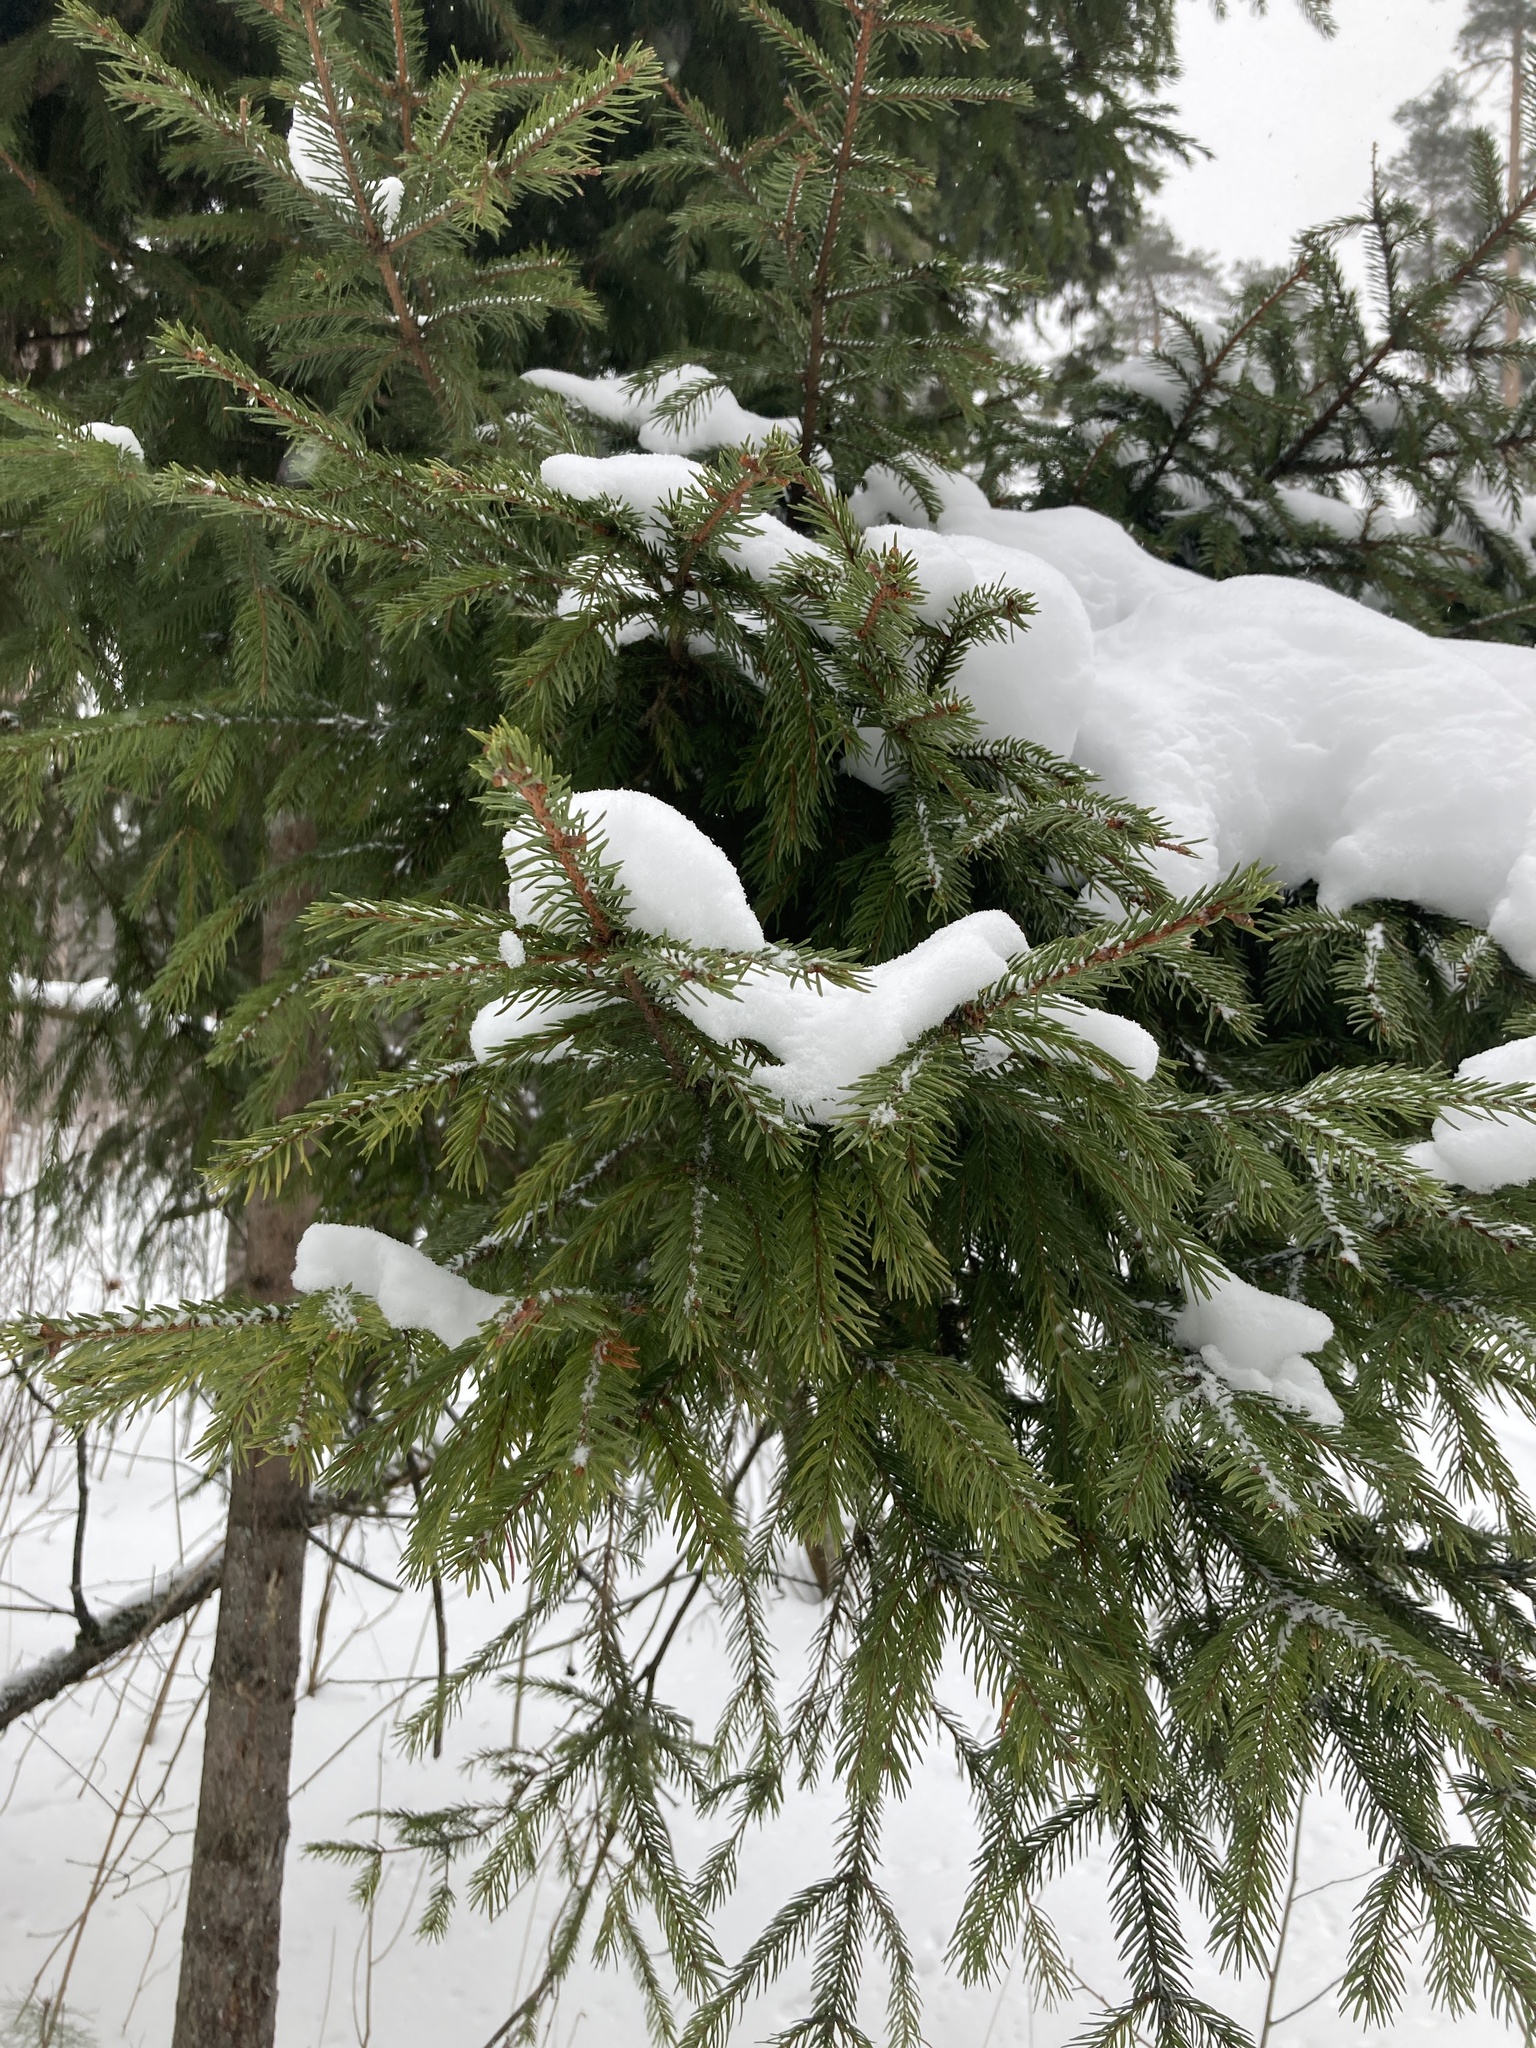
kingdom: Plantae
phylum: Tracheophyta
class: Pinopsida
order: Pinales
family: Pinaceae
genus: Picea
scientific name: Picea abies
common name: Norway spruce
